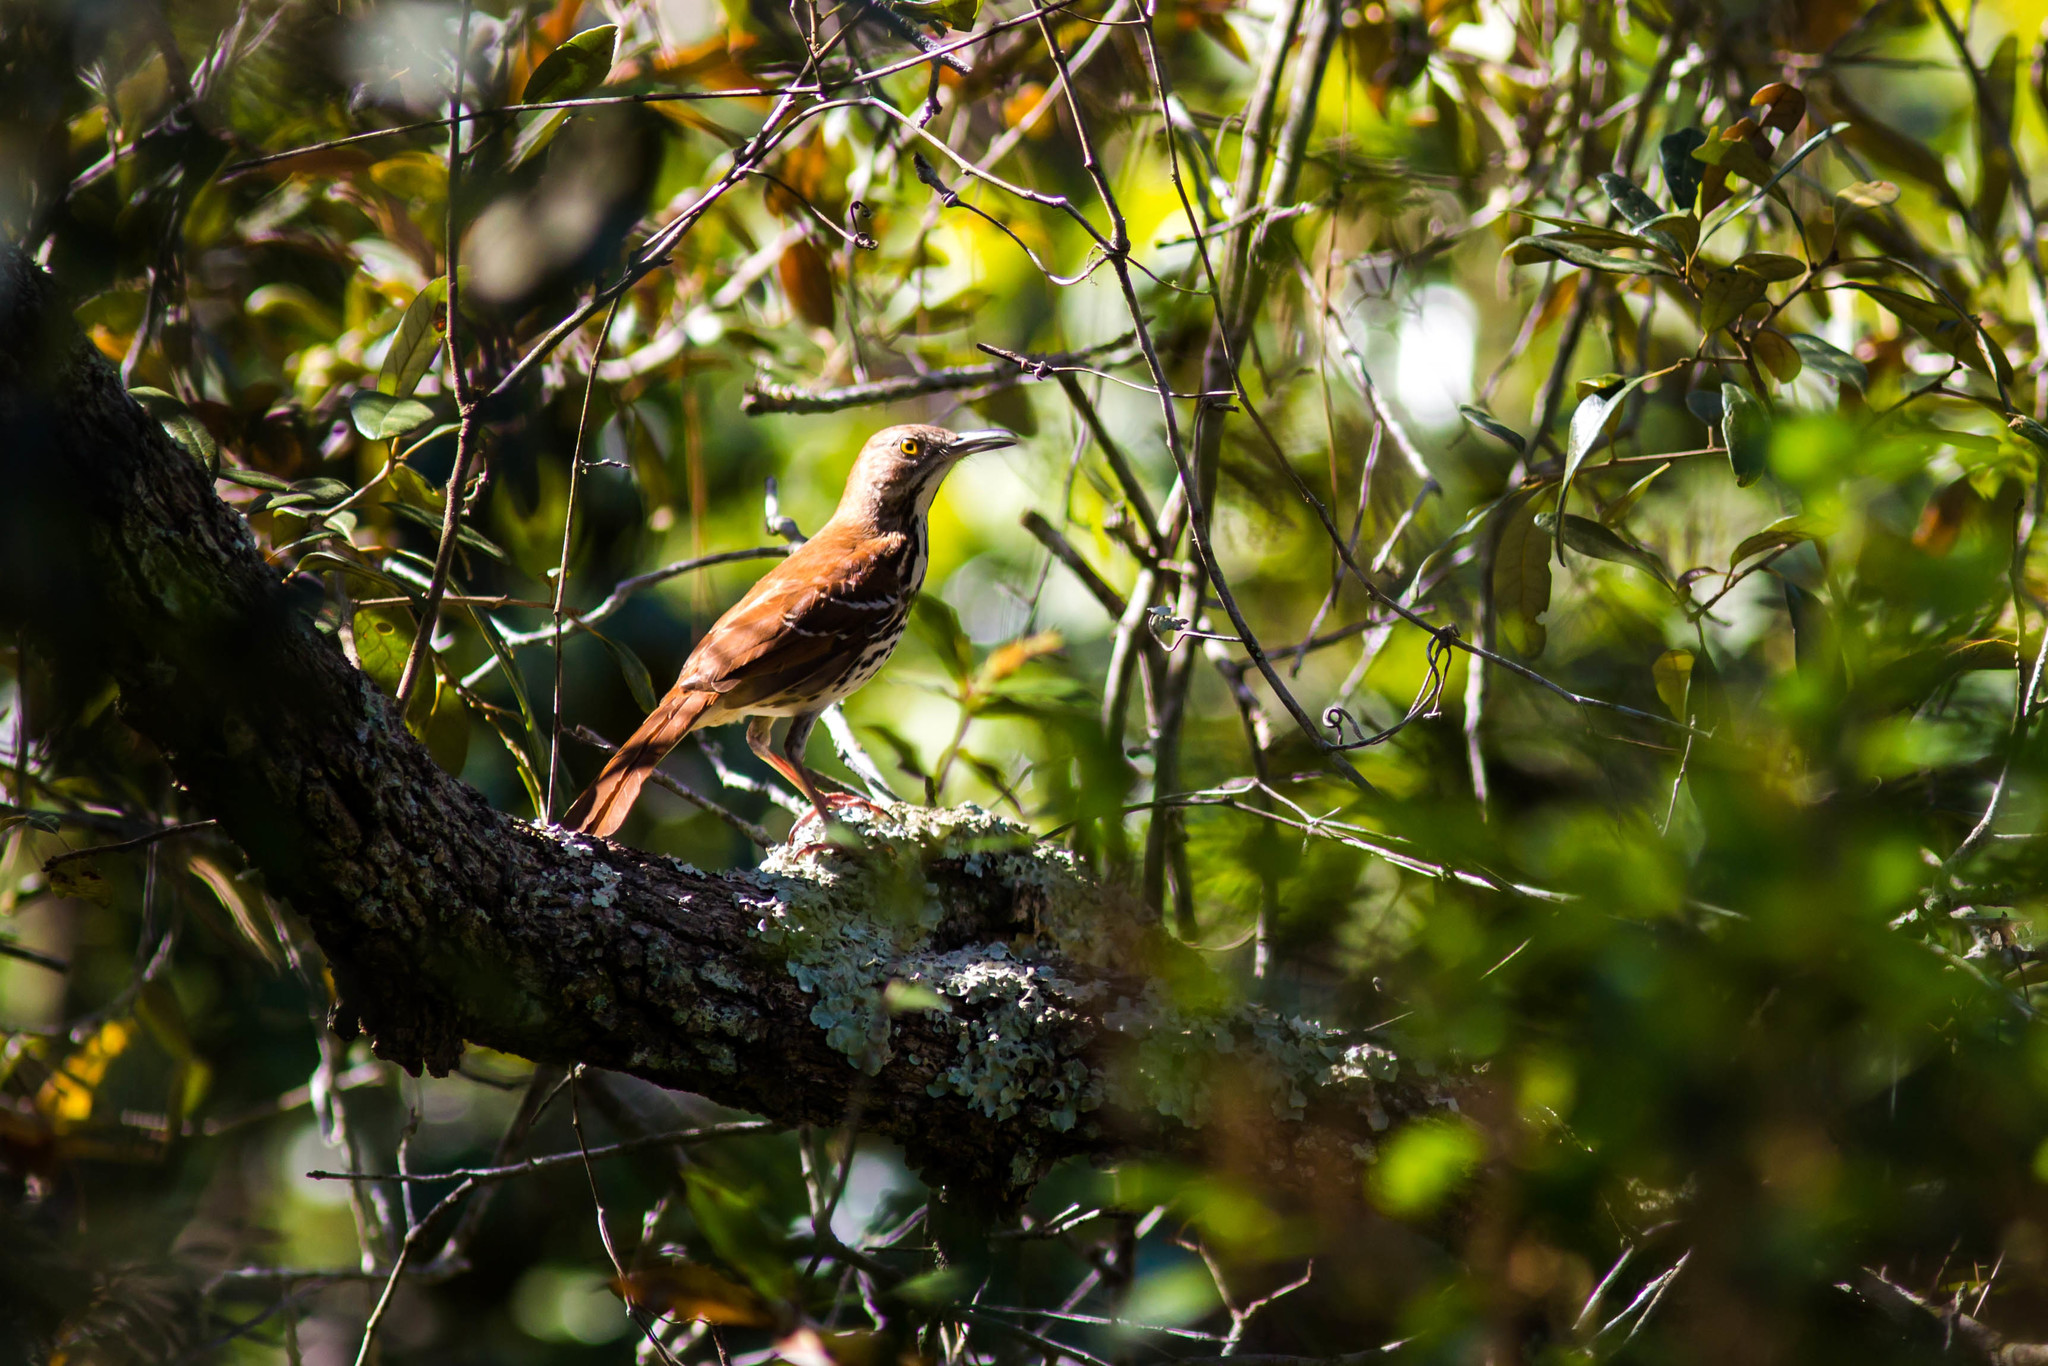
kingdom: Animalia
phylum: Chordata
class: Aves
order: Passeriformes
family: Mimidae
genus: Toxostoma
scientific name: Toxostoma rufum
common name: Brown thrasher
